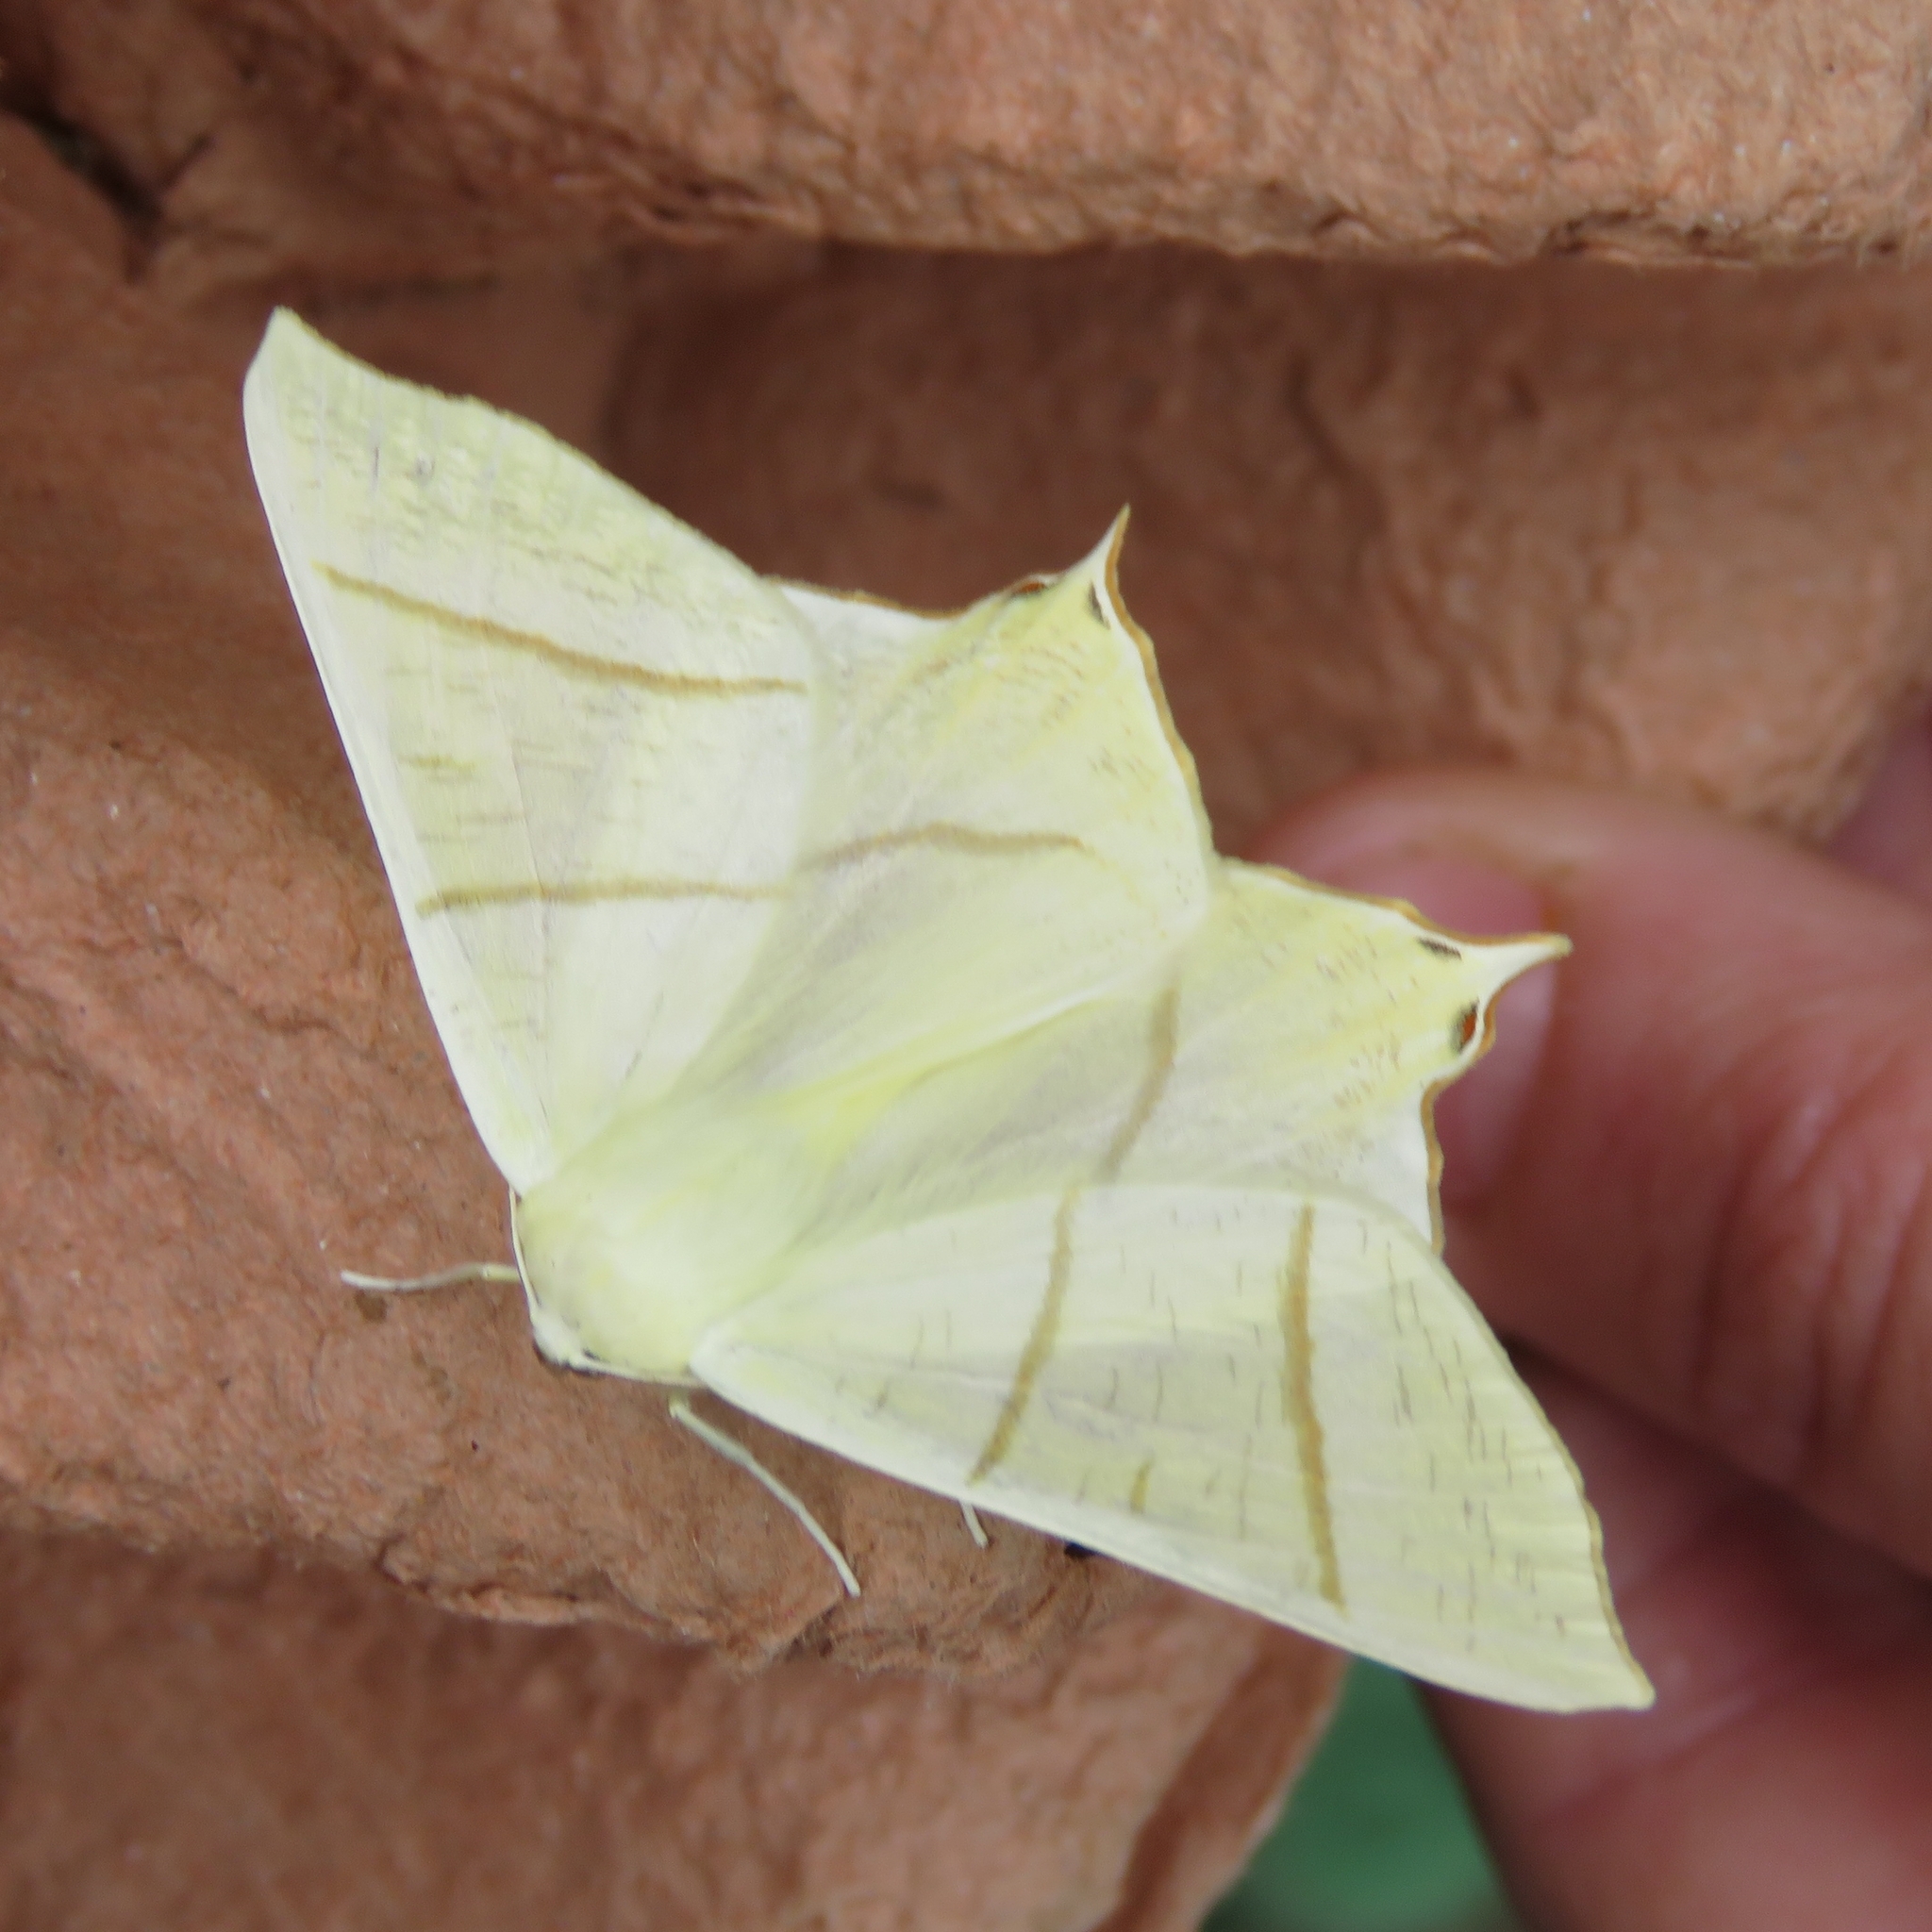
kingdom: Animalia
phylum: Arthropoda
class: Insecta
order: Lepidoptera
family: Geometridae
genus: Ourapteryx
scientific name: Ourapteryx sambucaria
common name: Swallow-tailed moth
